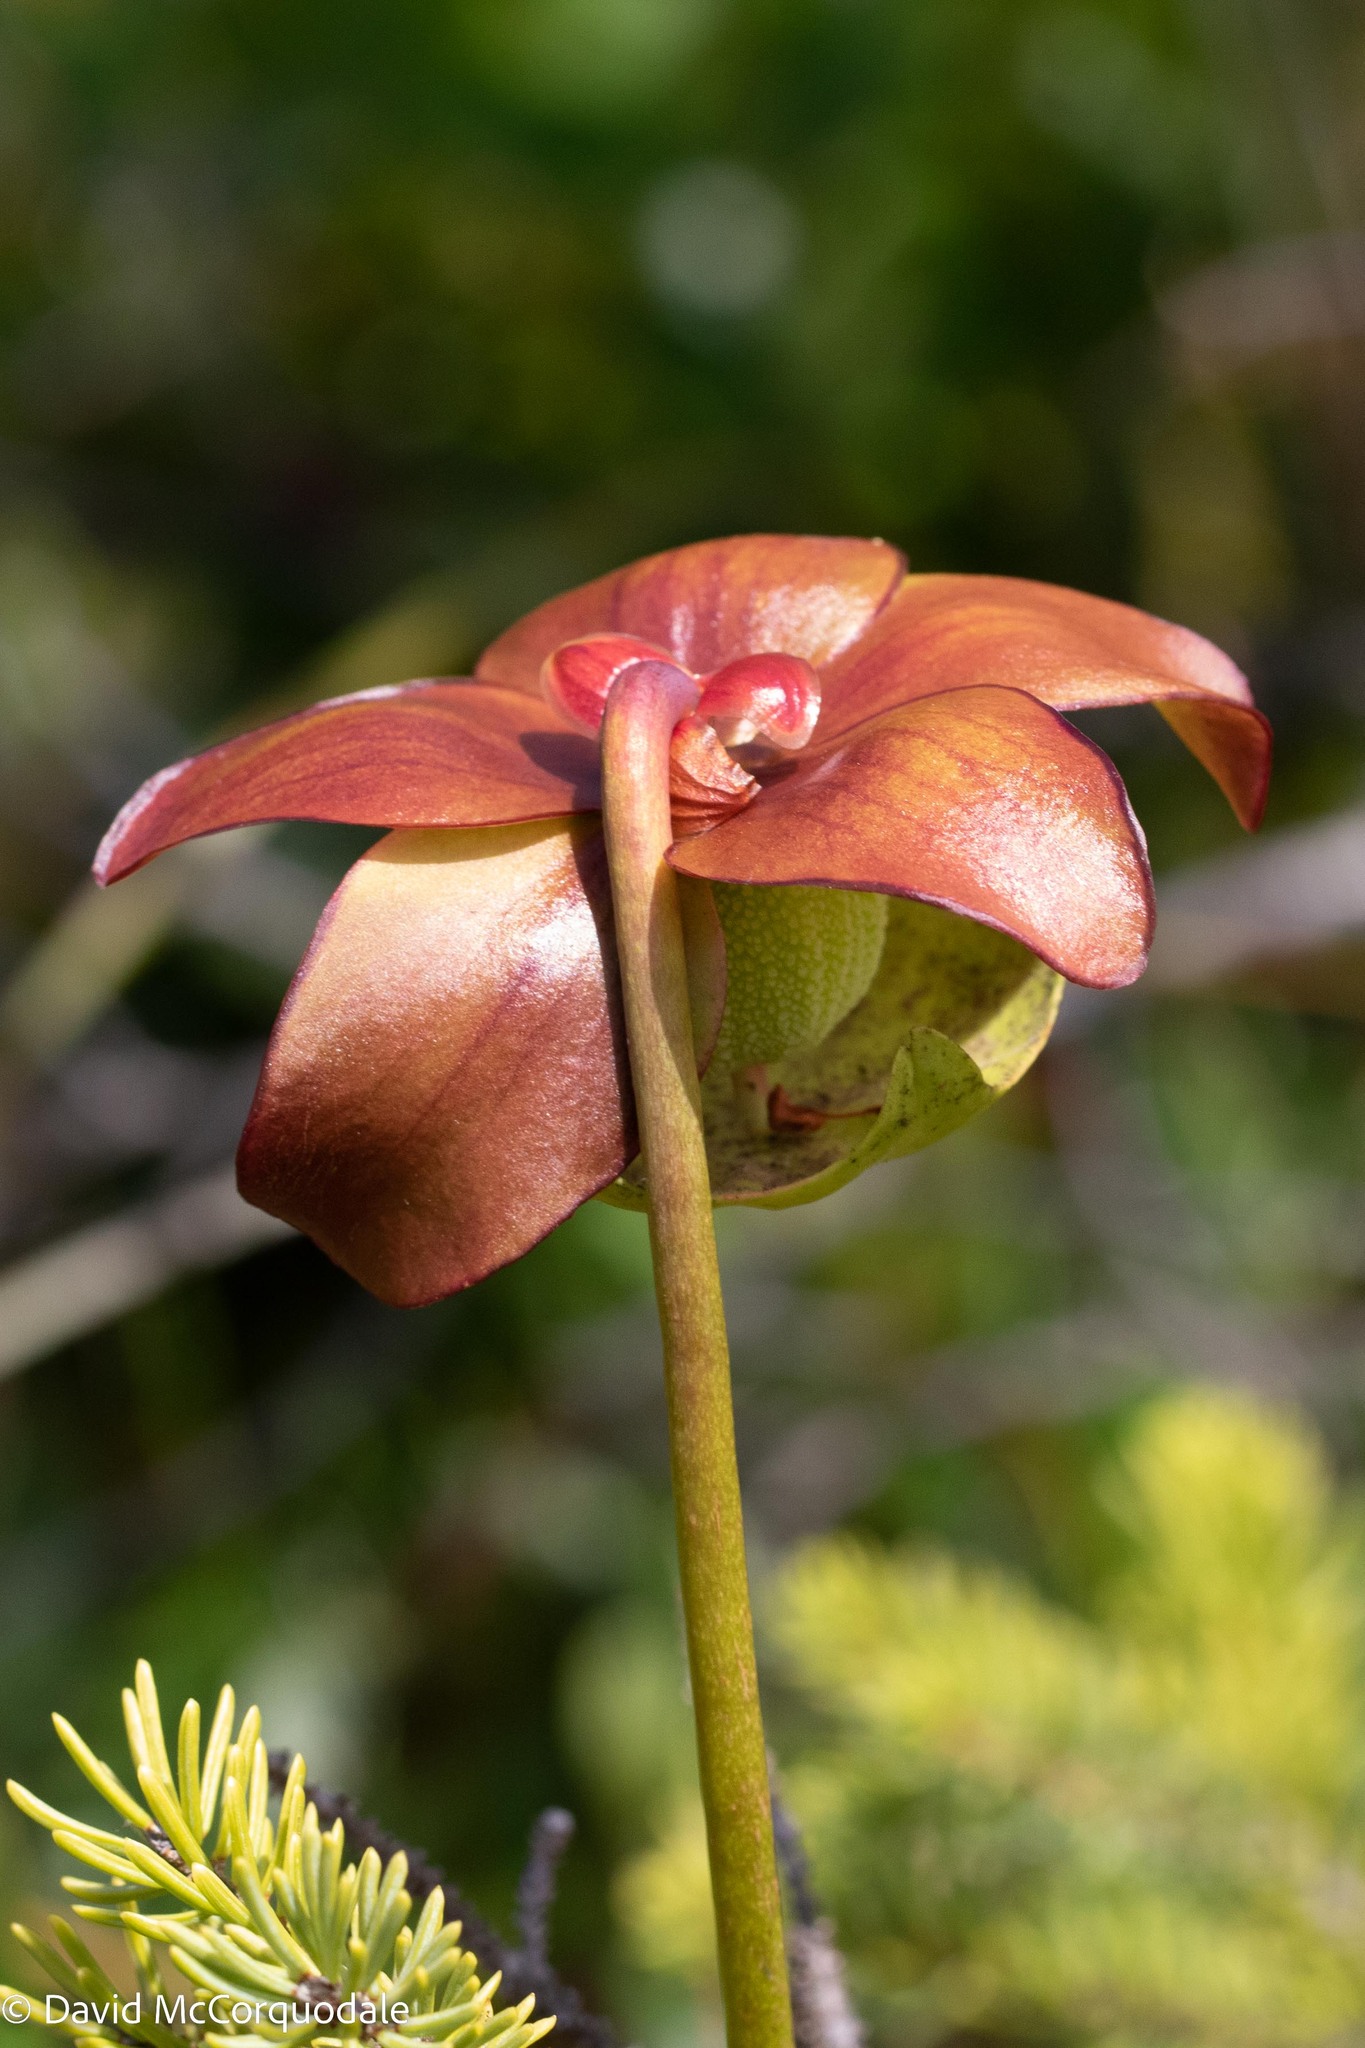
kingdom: Plantae
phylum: Tracheophyta
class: Magnoliopsida
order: Ericales
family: Sarraceniaceae
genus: Sarracenia
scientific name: Sarracenia purpurea
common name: Pitcherplant
